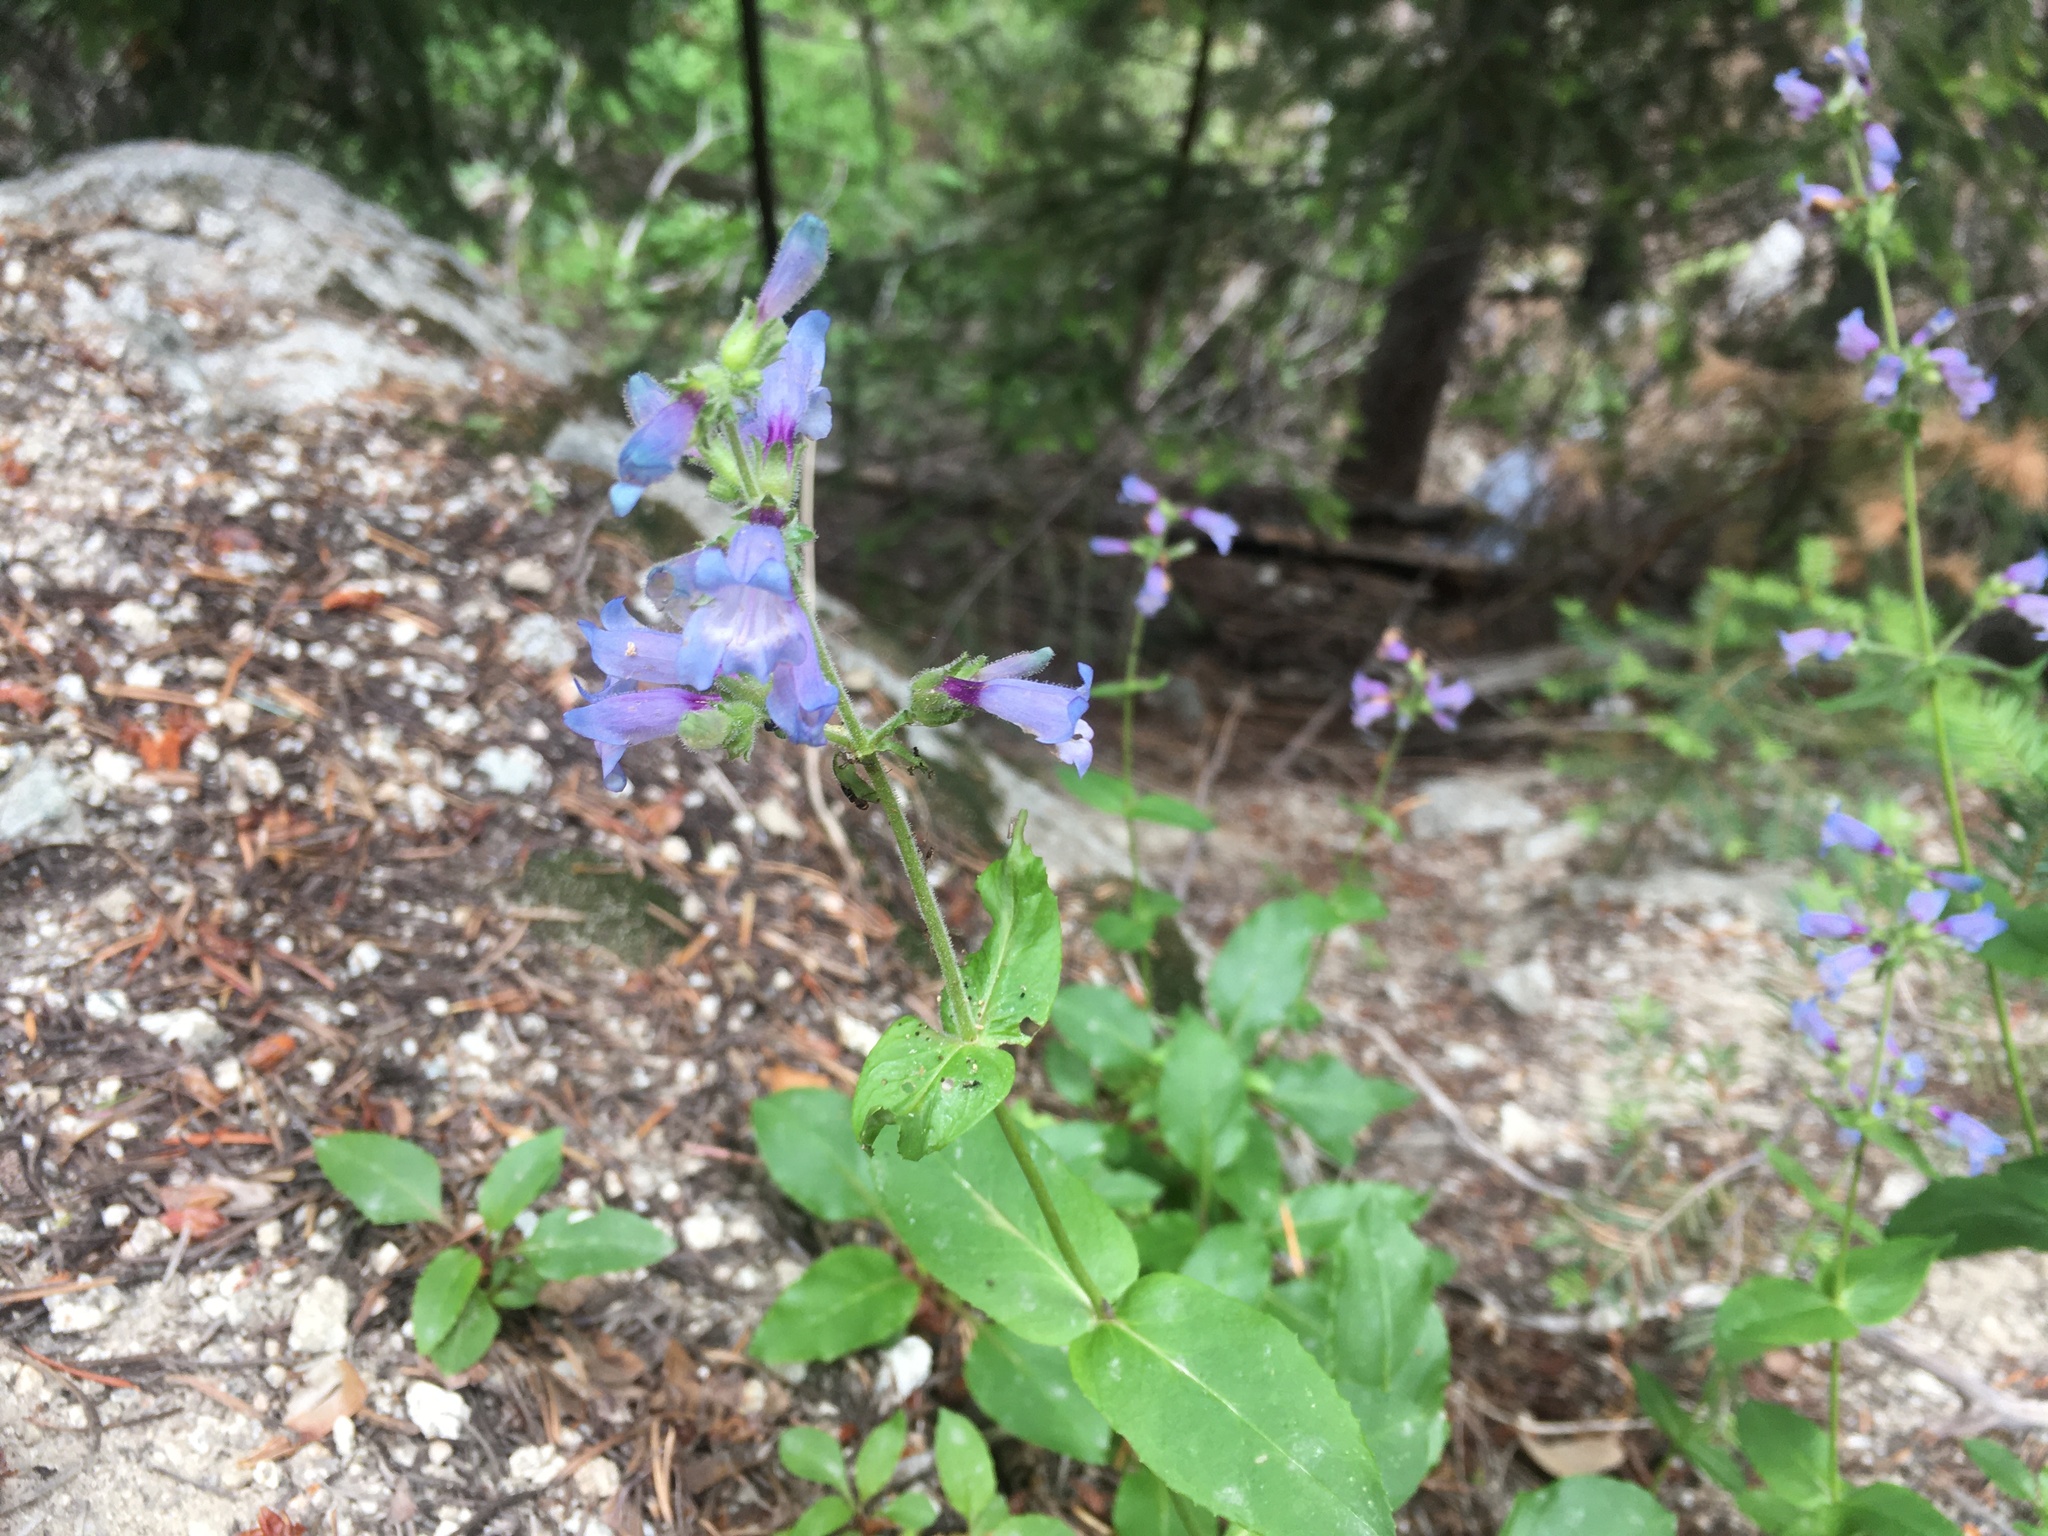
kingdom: Plantae
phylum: Tracheophyta
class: Magnoliopsida
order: Lamiales
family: Plantaginaceae
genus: Penstemon
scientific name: Penstemon anguineus
